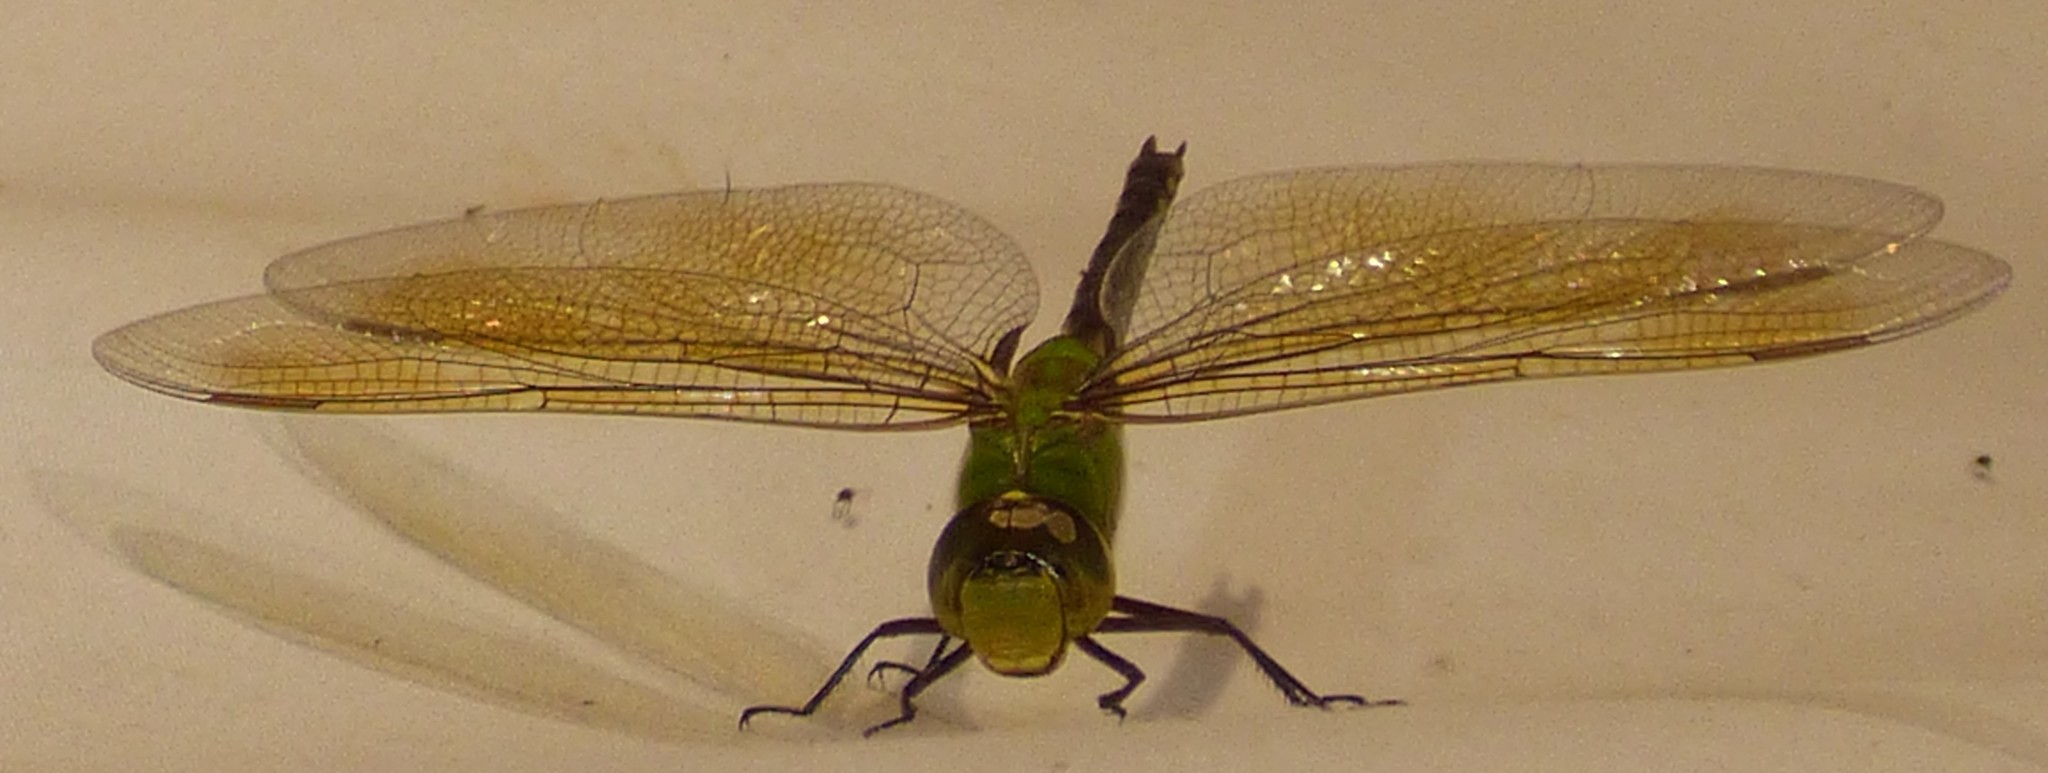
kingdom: Animalia
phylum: Arthropoda
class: Insecta
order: Odonata
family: Aeshnidae
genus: Anax
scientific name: Anax junius
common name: Common green darner
